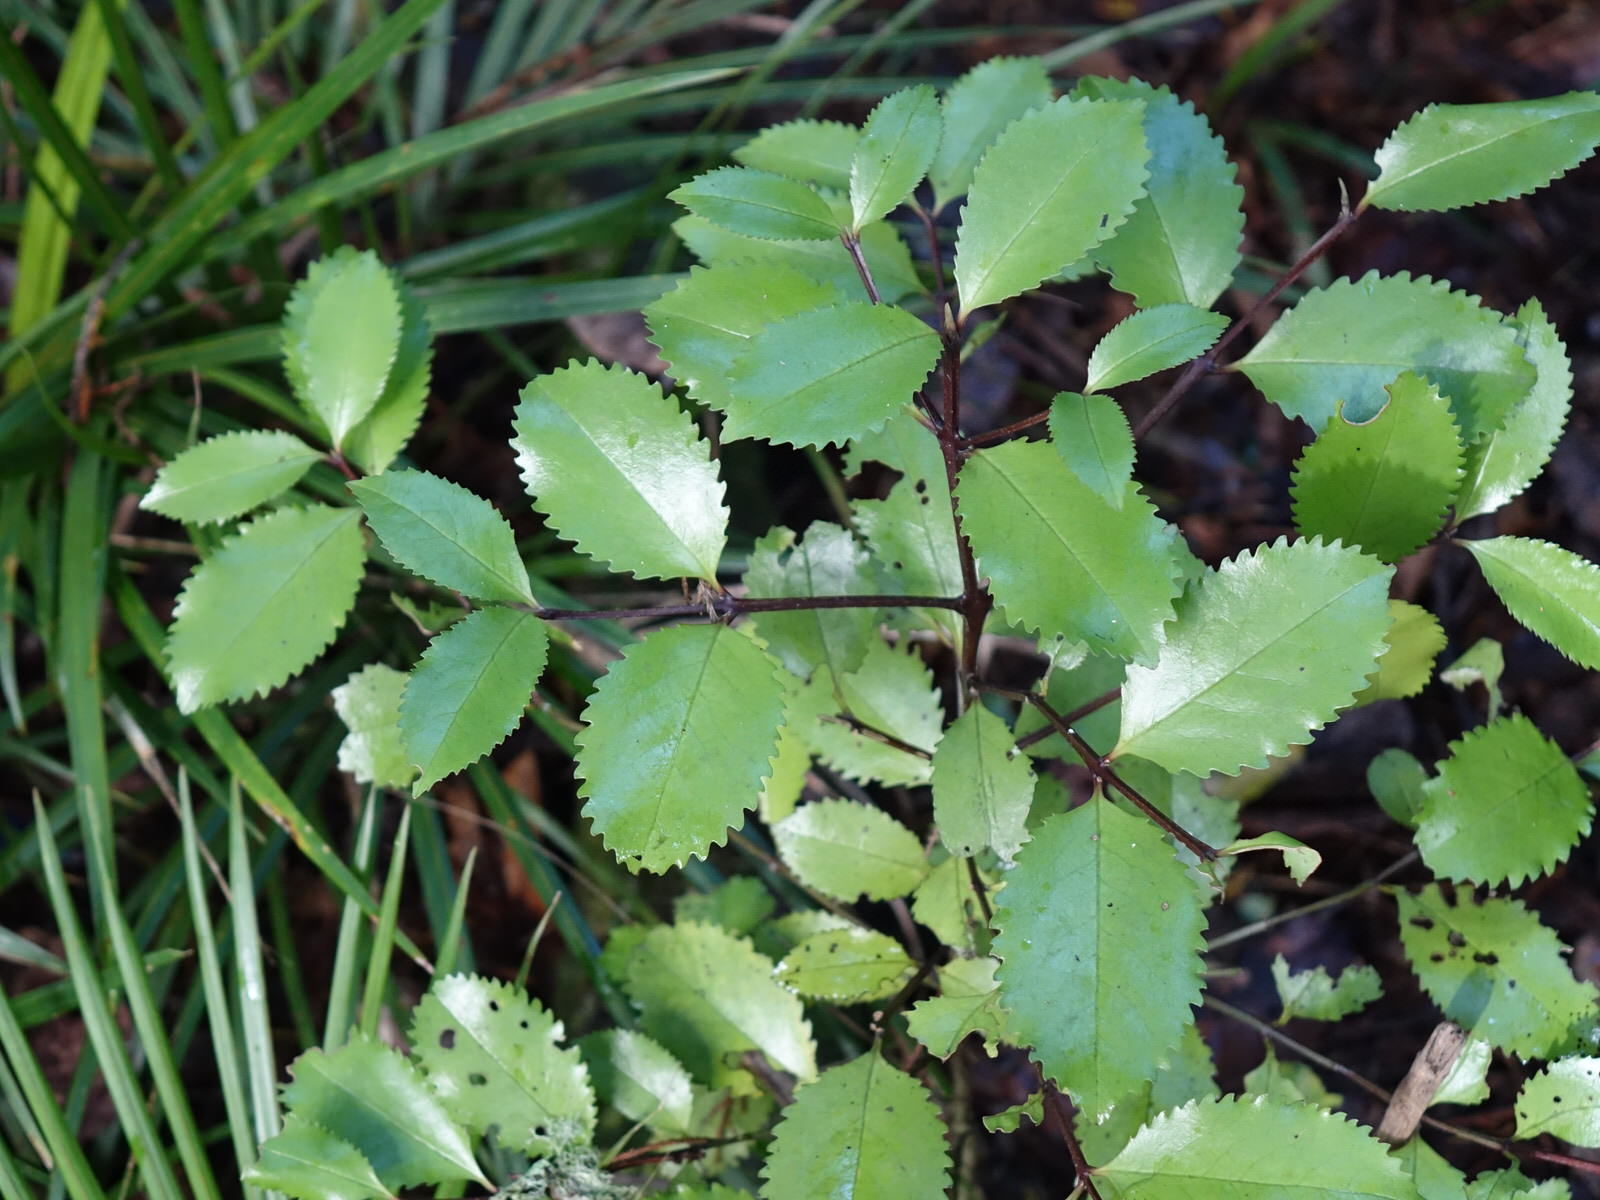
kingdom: Plantae
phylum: Tracheophyta
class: Magnoliopsida
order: Laurales
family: Atherospermataceae
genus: Laurelia
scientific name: Laurelia novae-zelandiae
